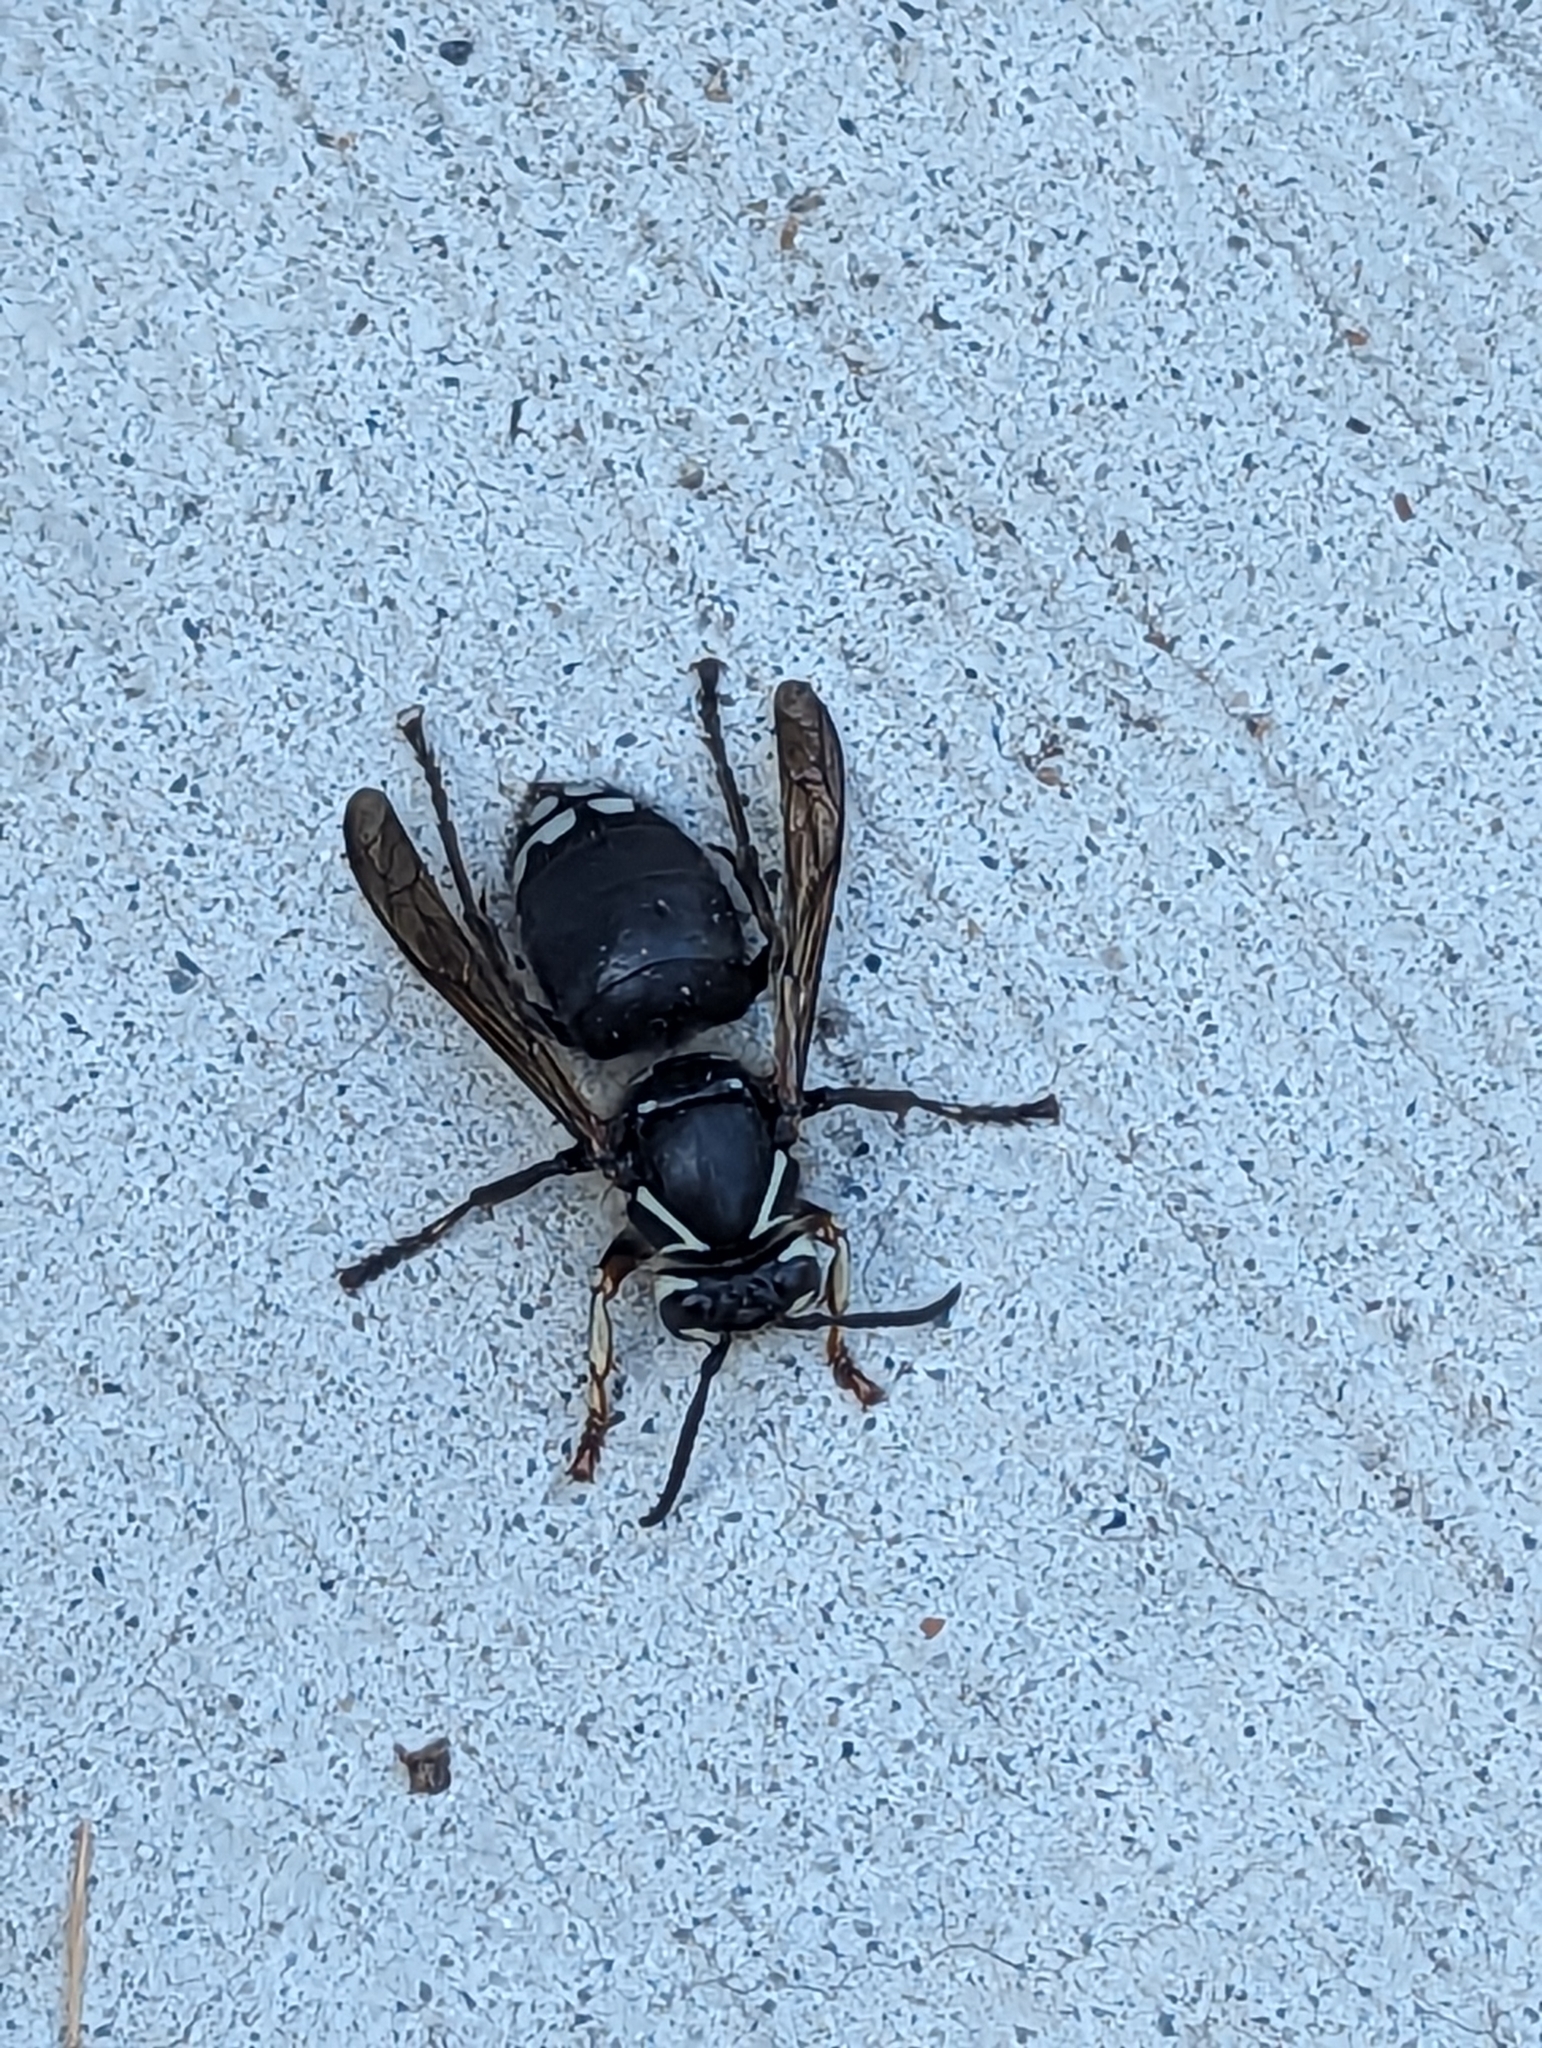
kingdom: Animalia
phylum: Arthropoda
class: Insecta
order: Hymenoptera
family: Vespidae
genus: Dolichovespula
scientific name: Dolichovespula maculata
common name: Bald-faced hornet
